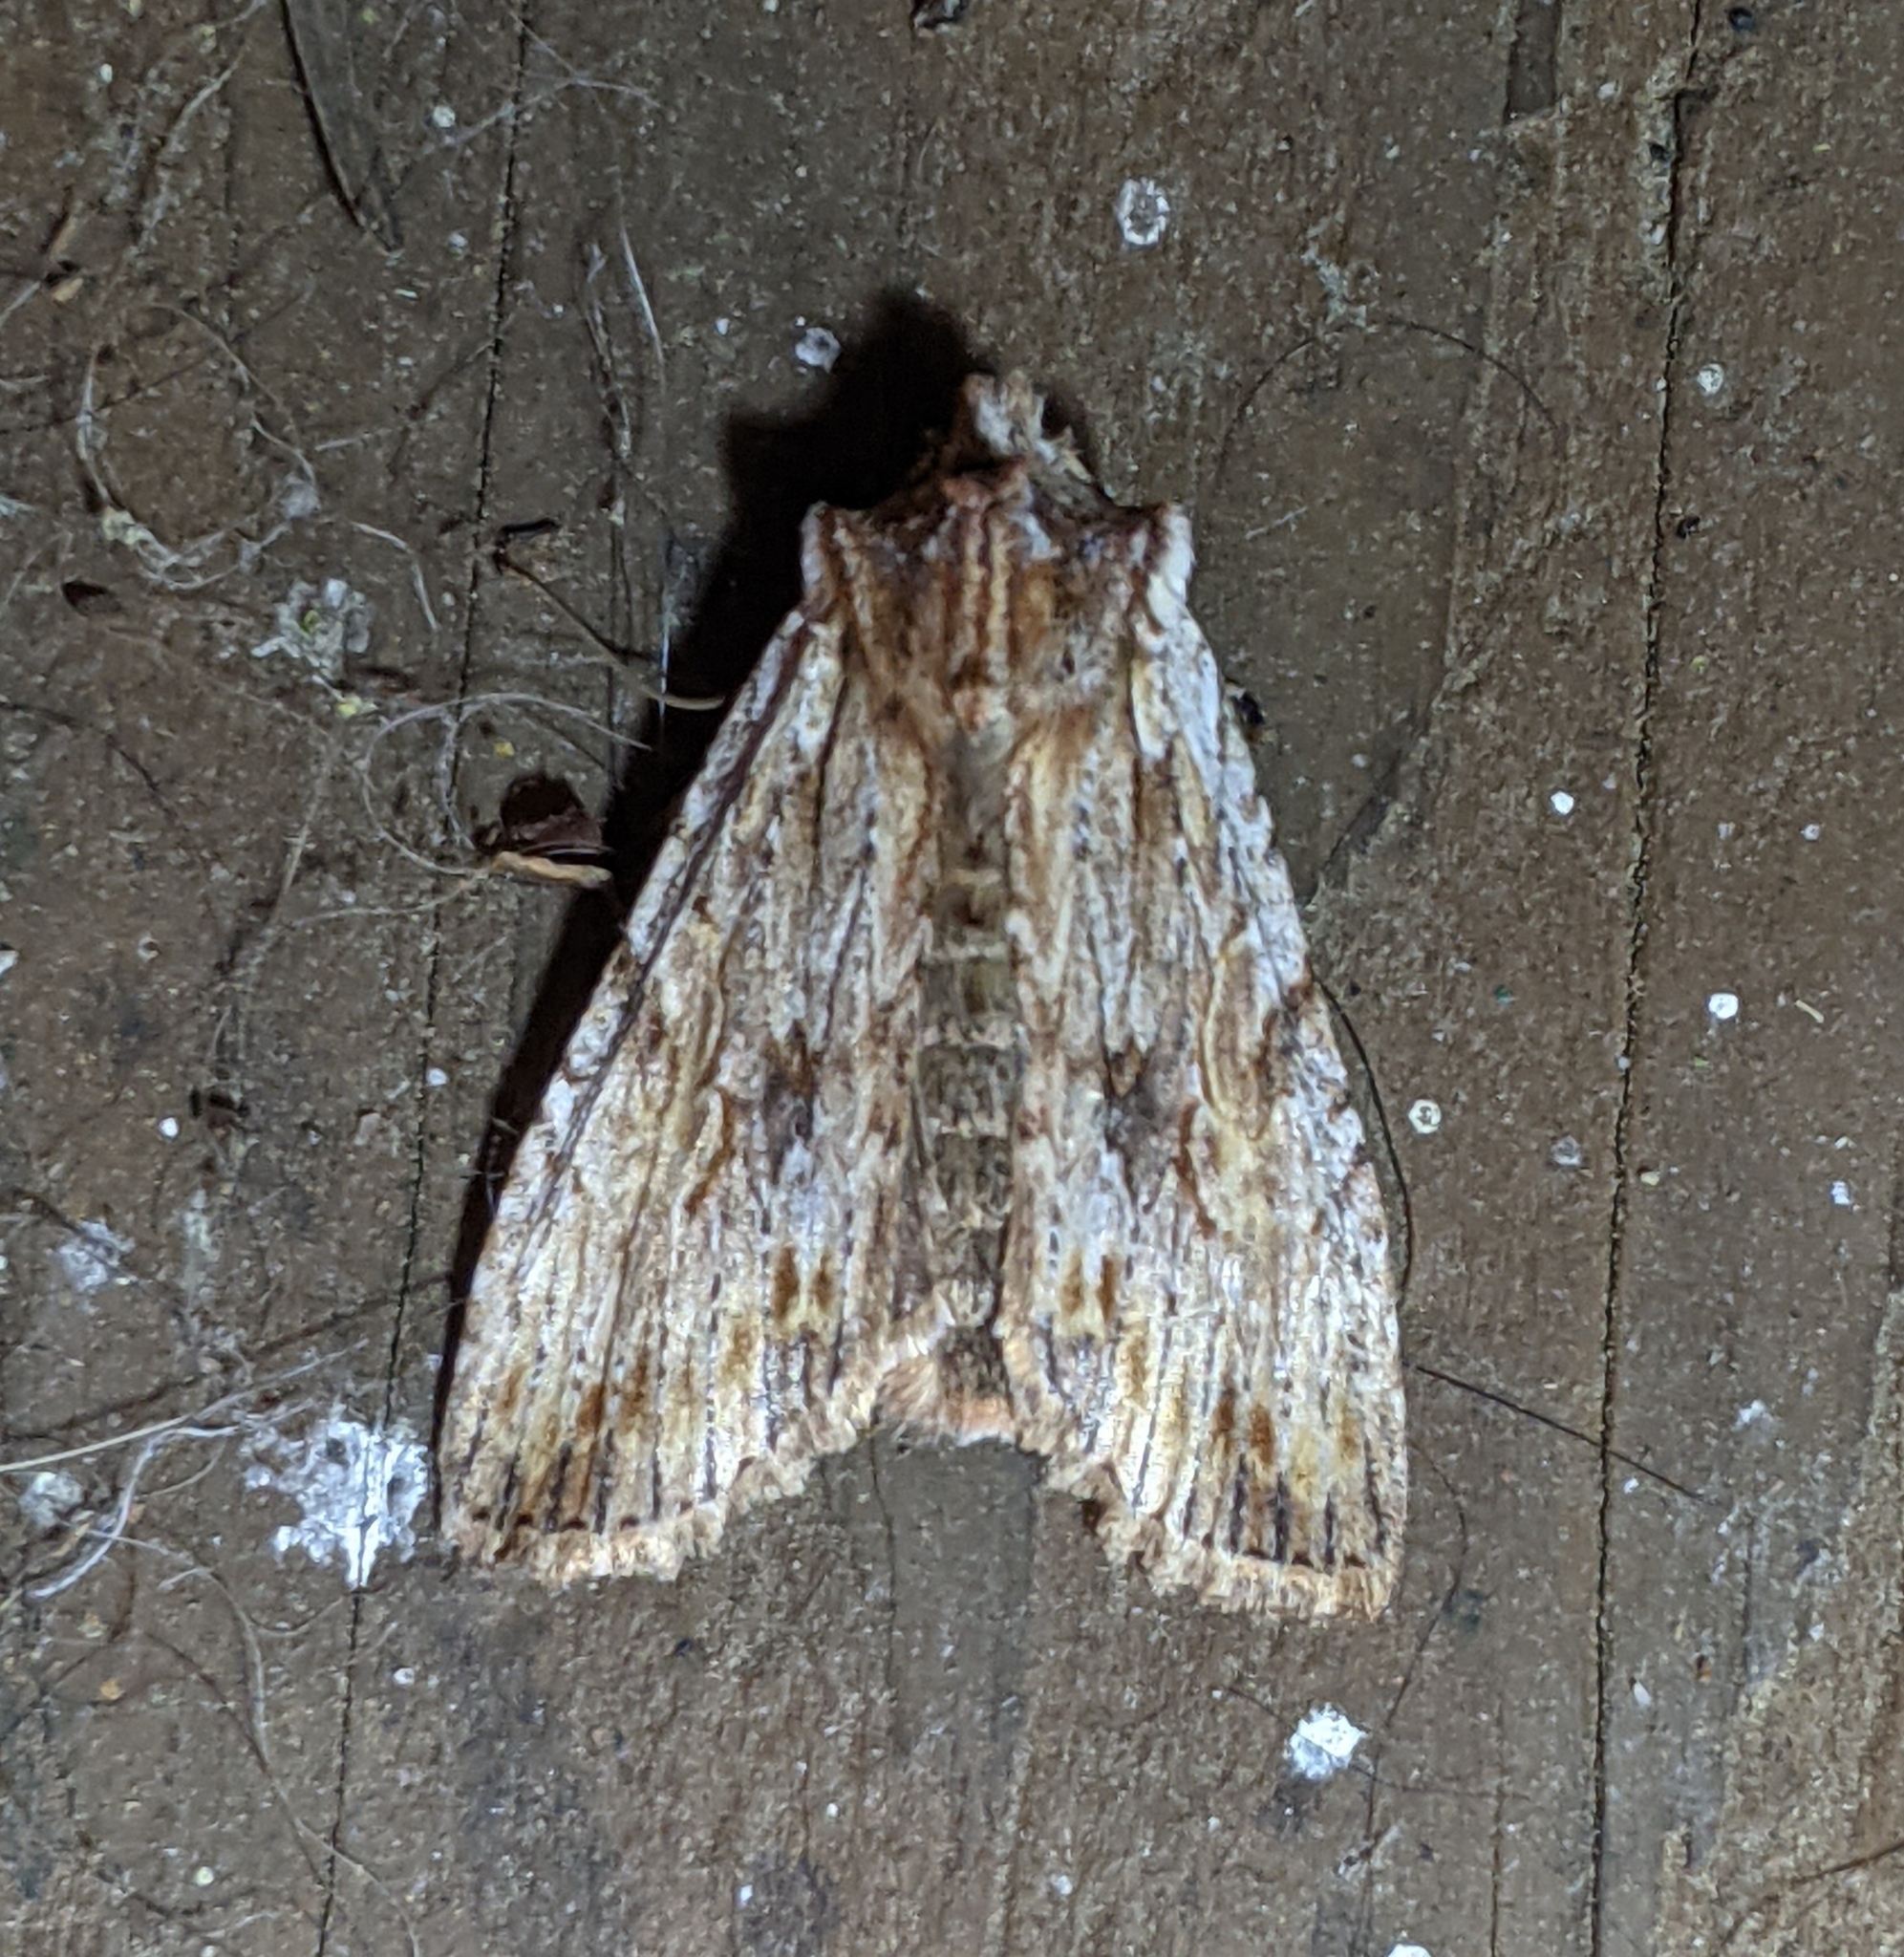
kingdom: Animalia
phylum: Arthropoda
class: Insecta
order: Lepidoptera
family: Noctuidae
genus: Lithophane
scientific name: Lithophane petulca
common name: Wanton pinion
